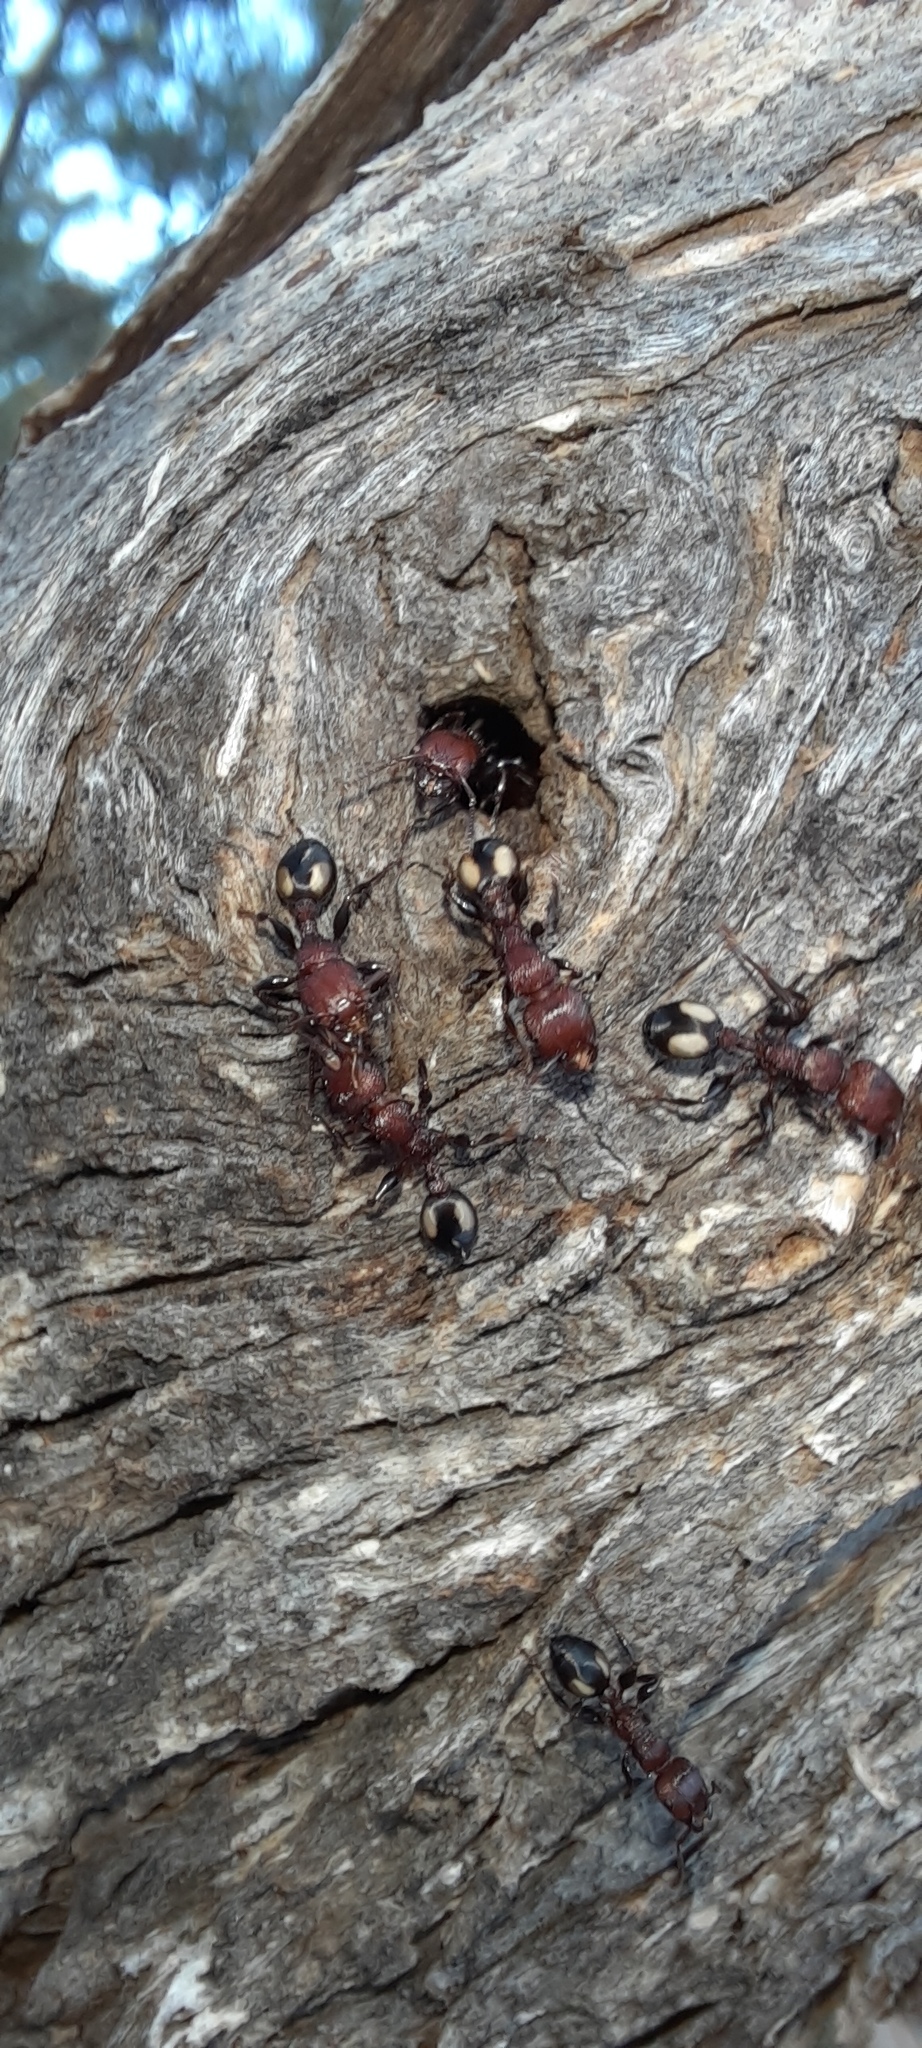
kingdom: Animalia
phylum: Arthropoda
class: Insecta
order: Hymenoptera
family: Formicidae
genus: Podomyrma
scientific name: Podomyrma adelaidae
